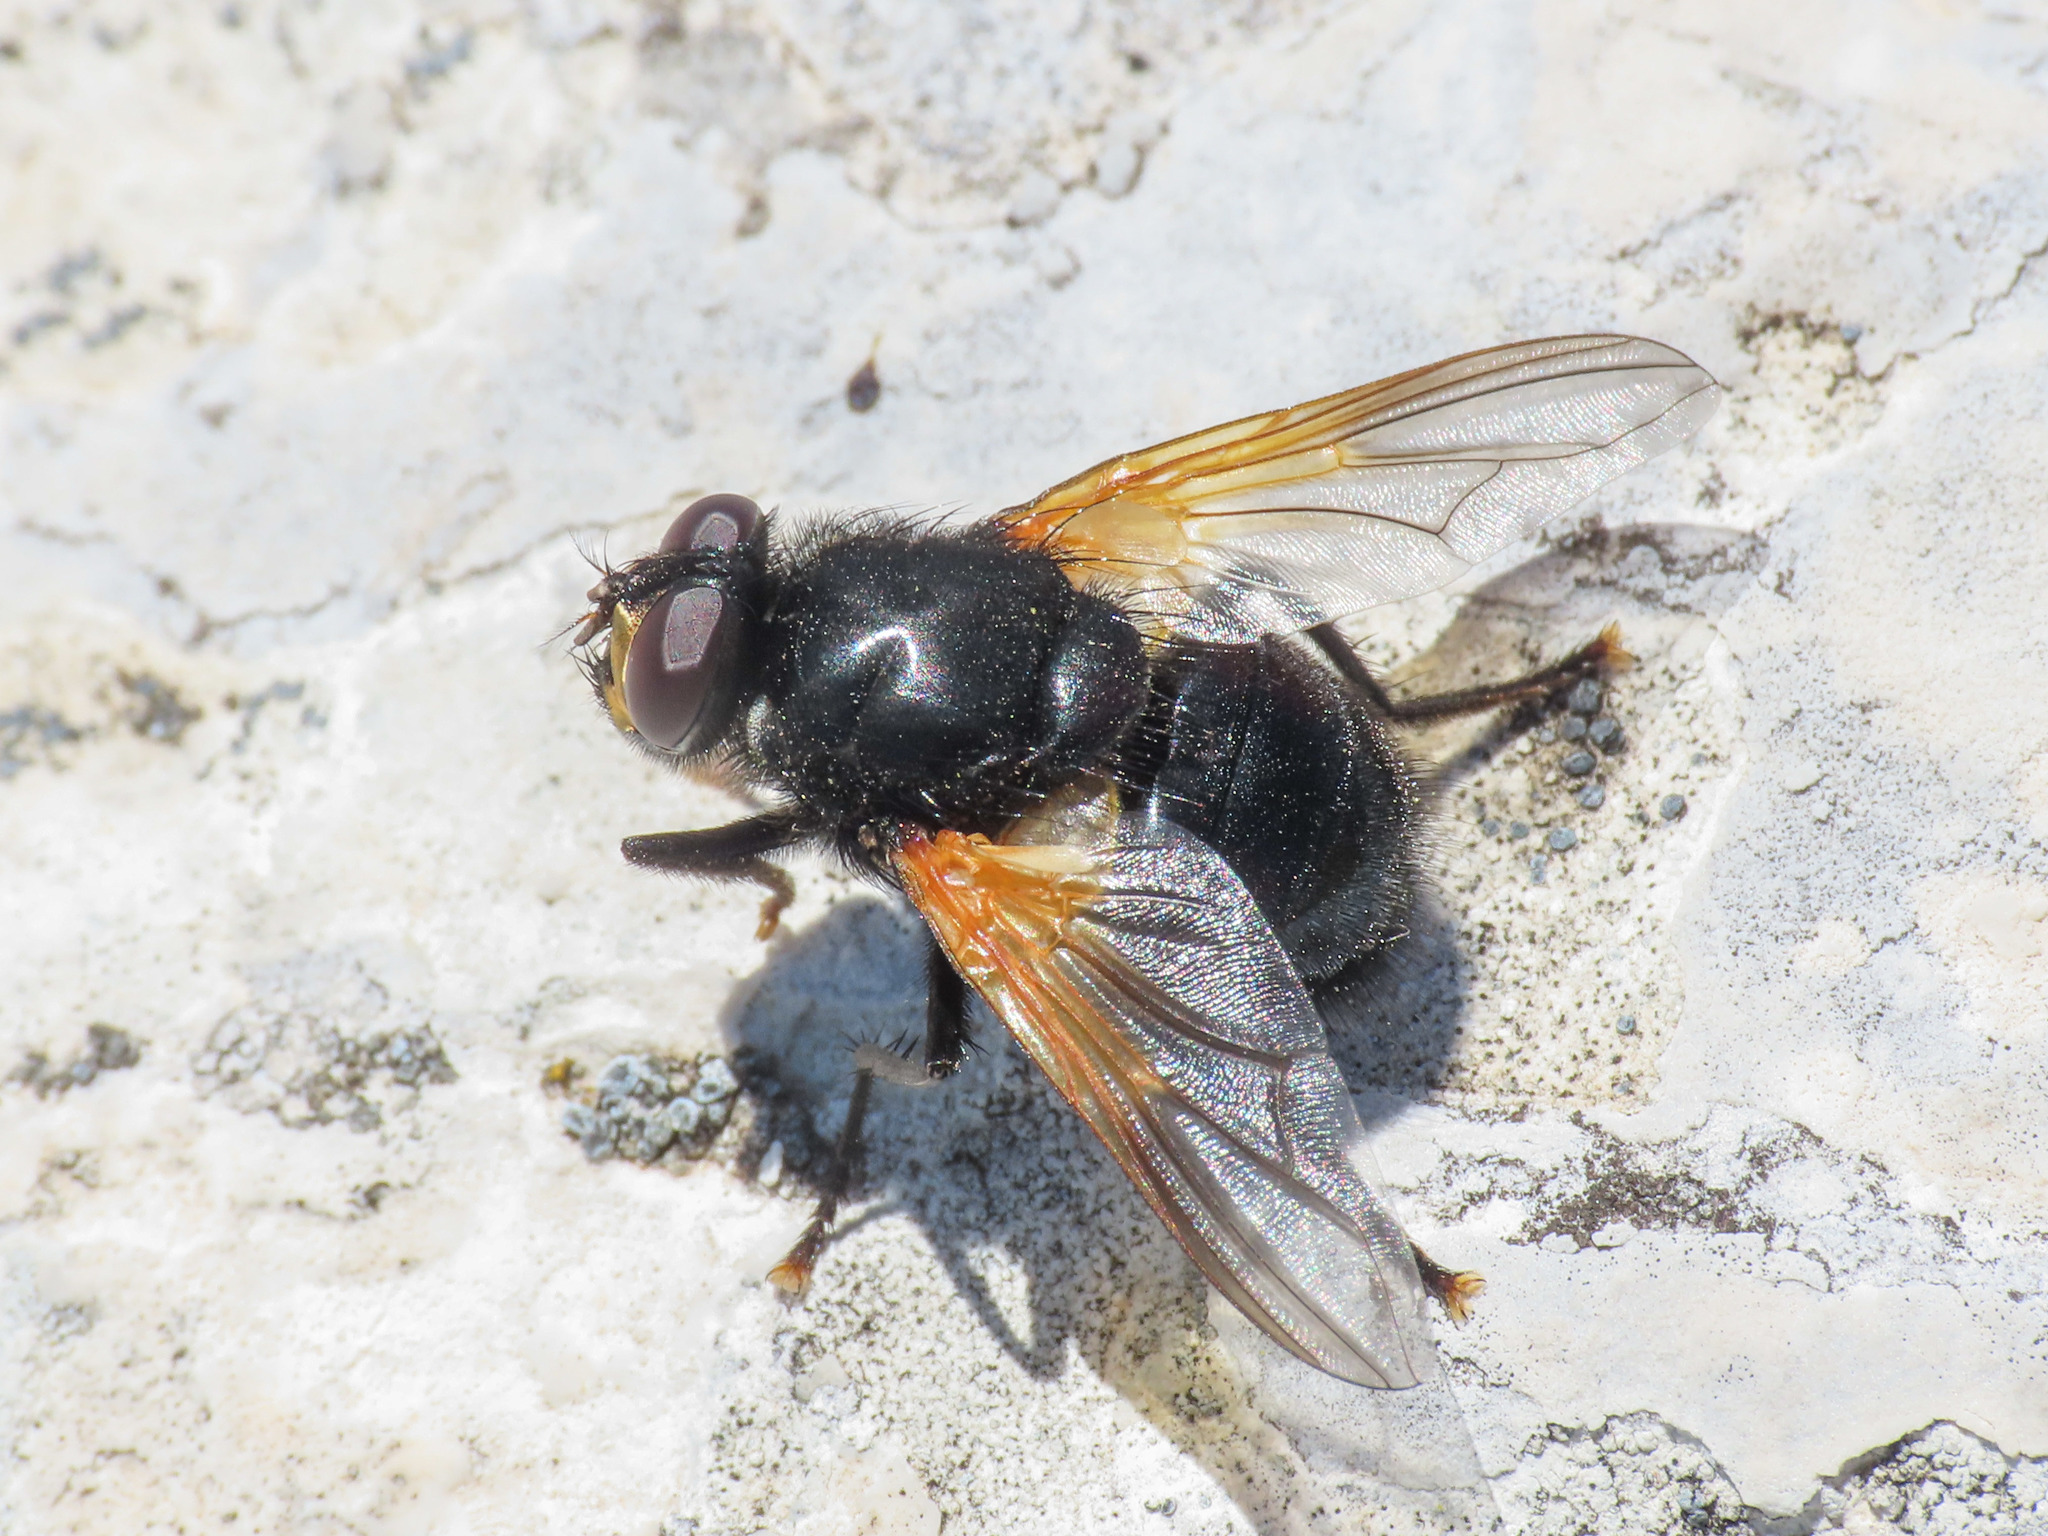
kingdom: Animalia
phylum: Arthropoda
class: Insecta
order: Diptera
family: Muscidae
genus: Mesembrina
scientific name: Mesembrina meridiana
